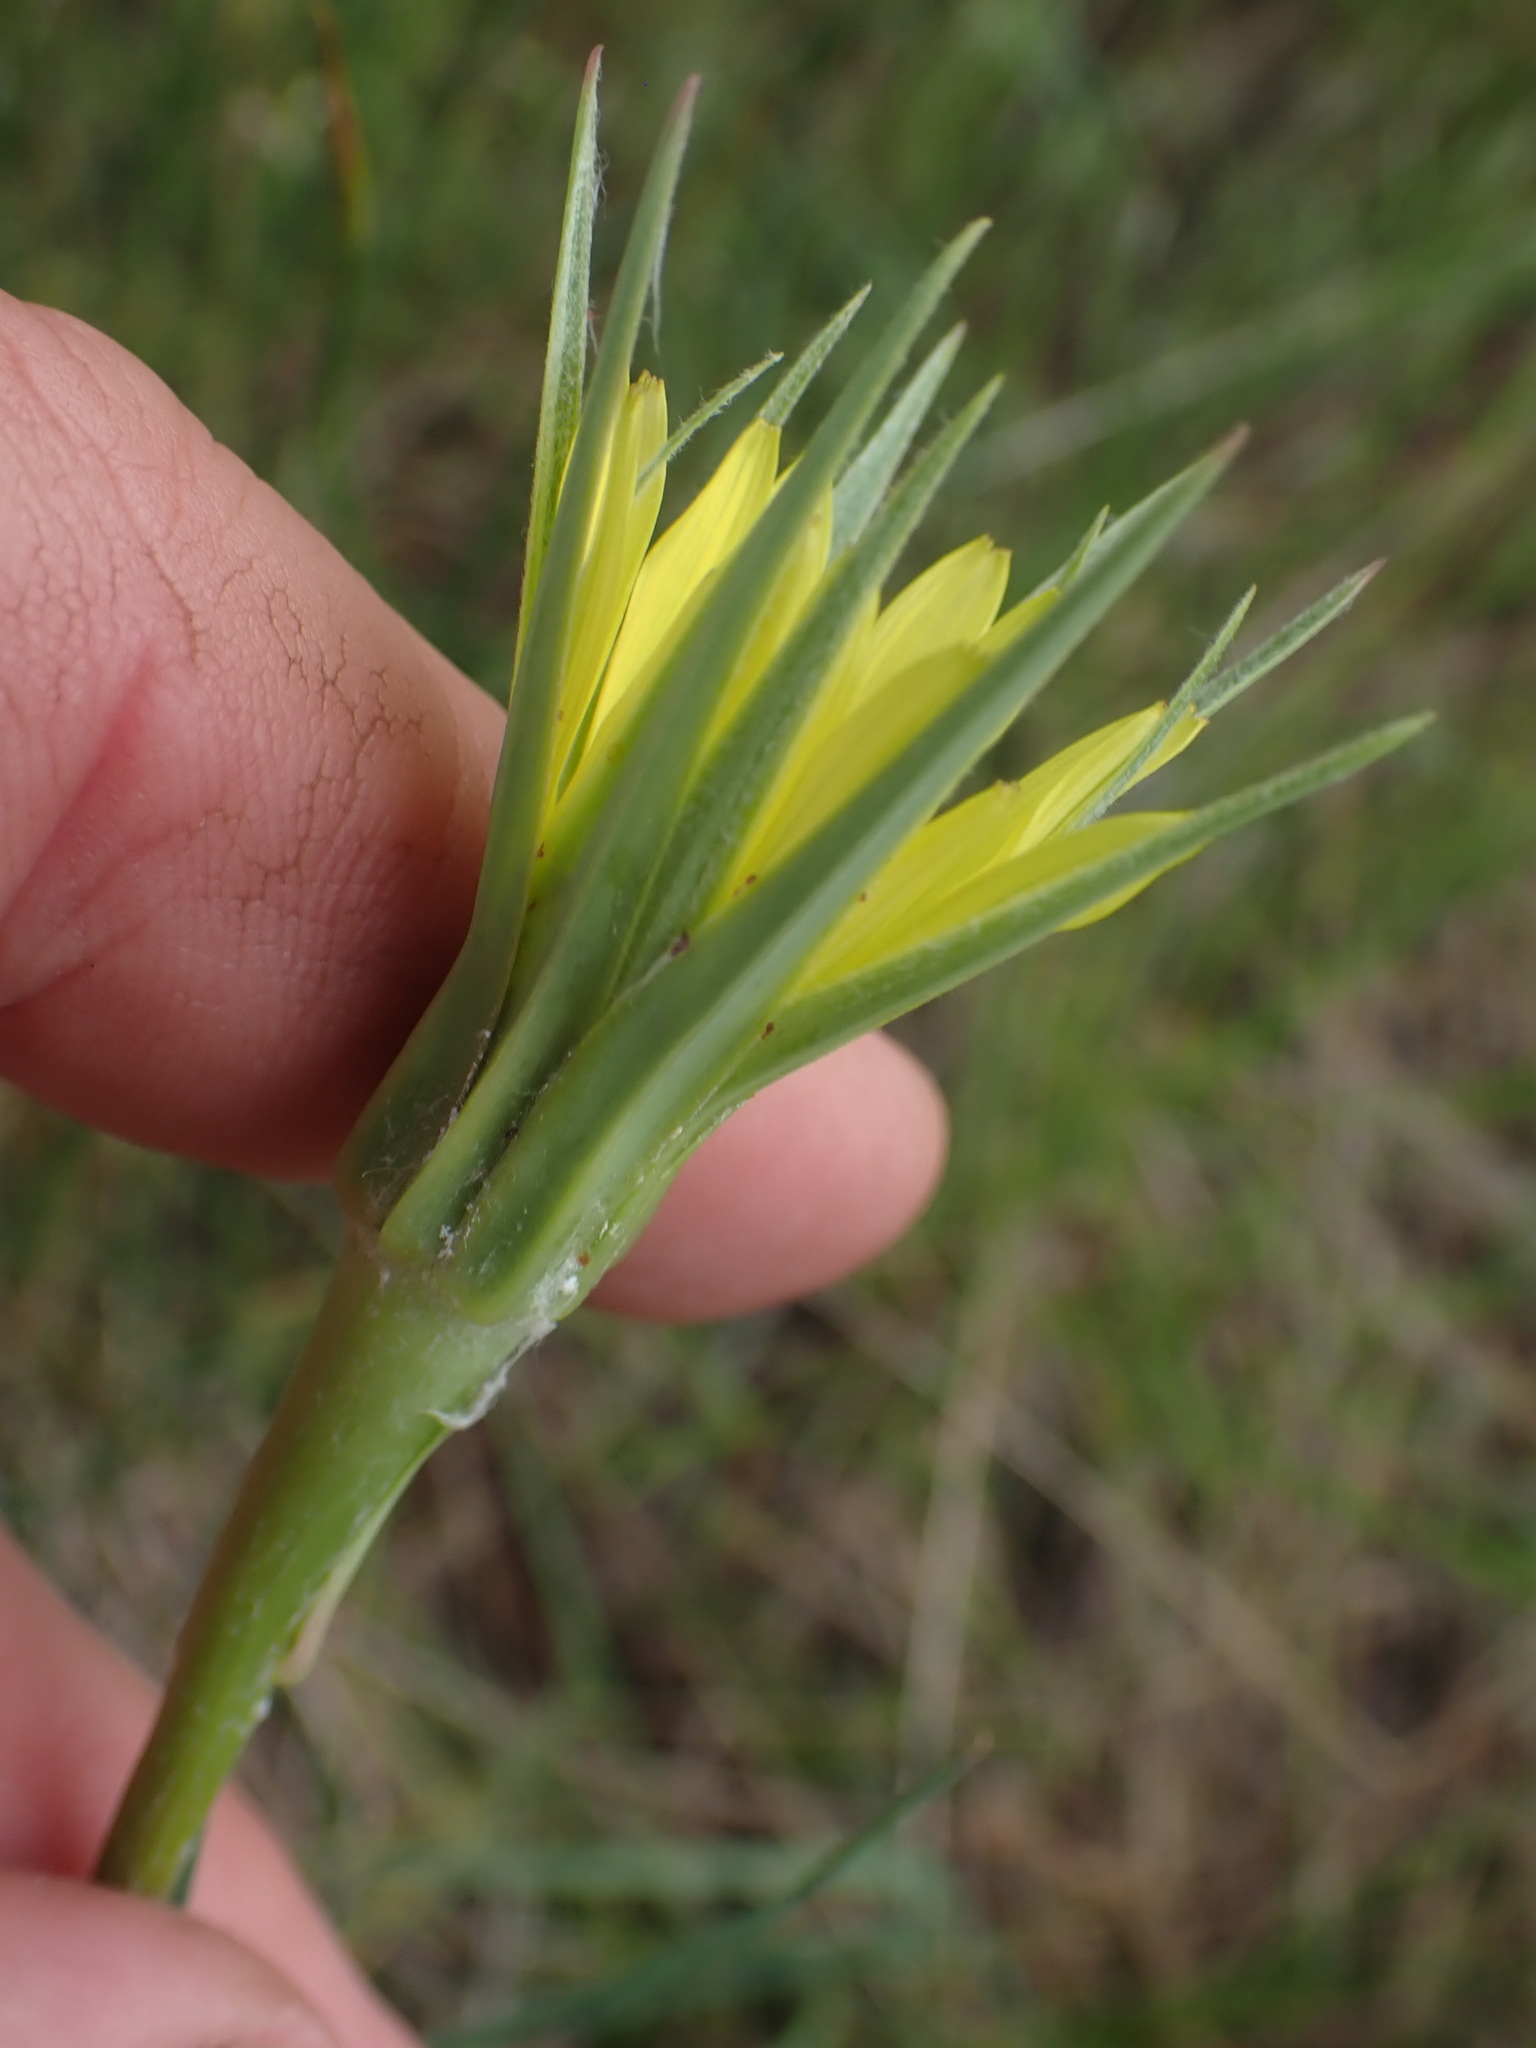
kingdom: Plantae
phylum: Tracheophyta
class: Magnoliopsida
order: Asterales
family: Asteraceae
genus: Tragopogon
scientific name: Tragopogon dubius
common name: Yellow salsify
